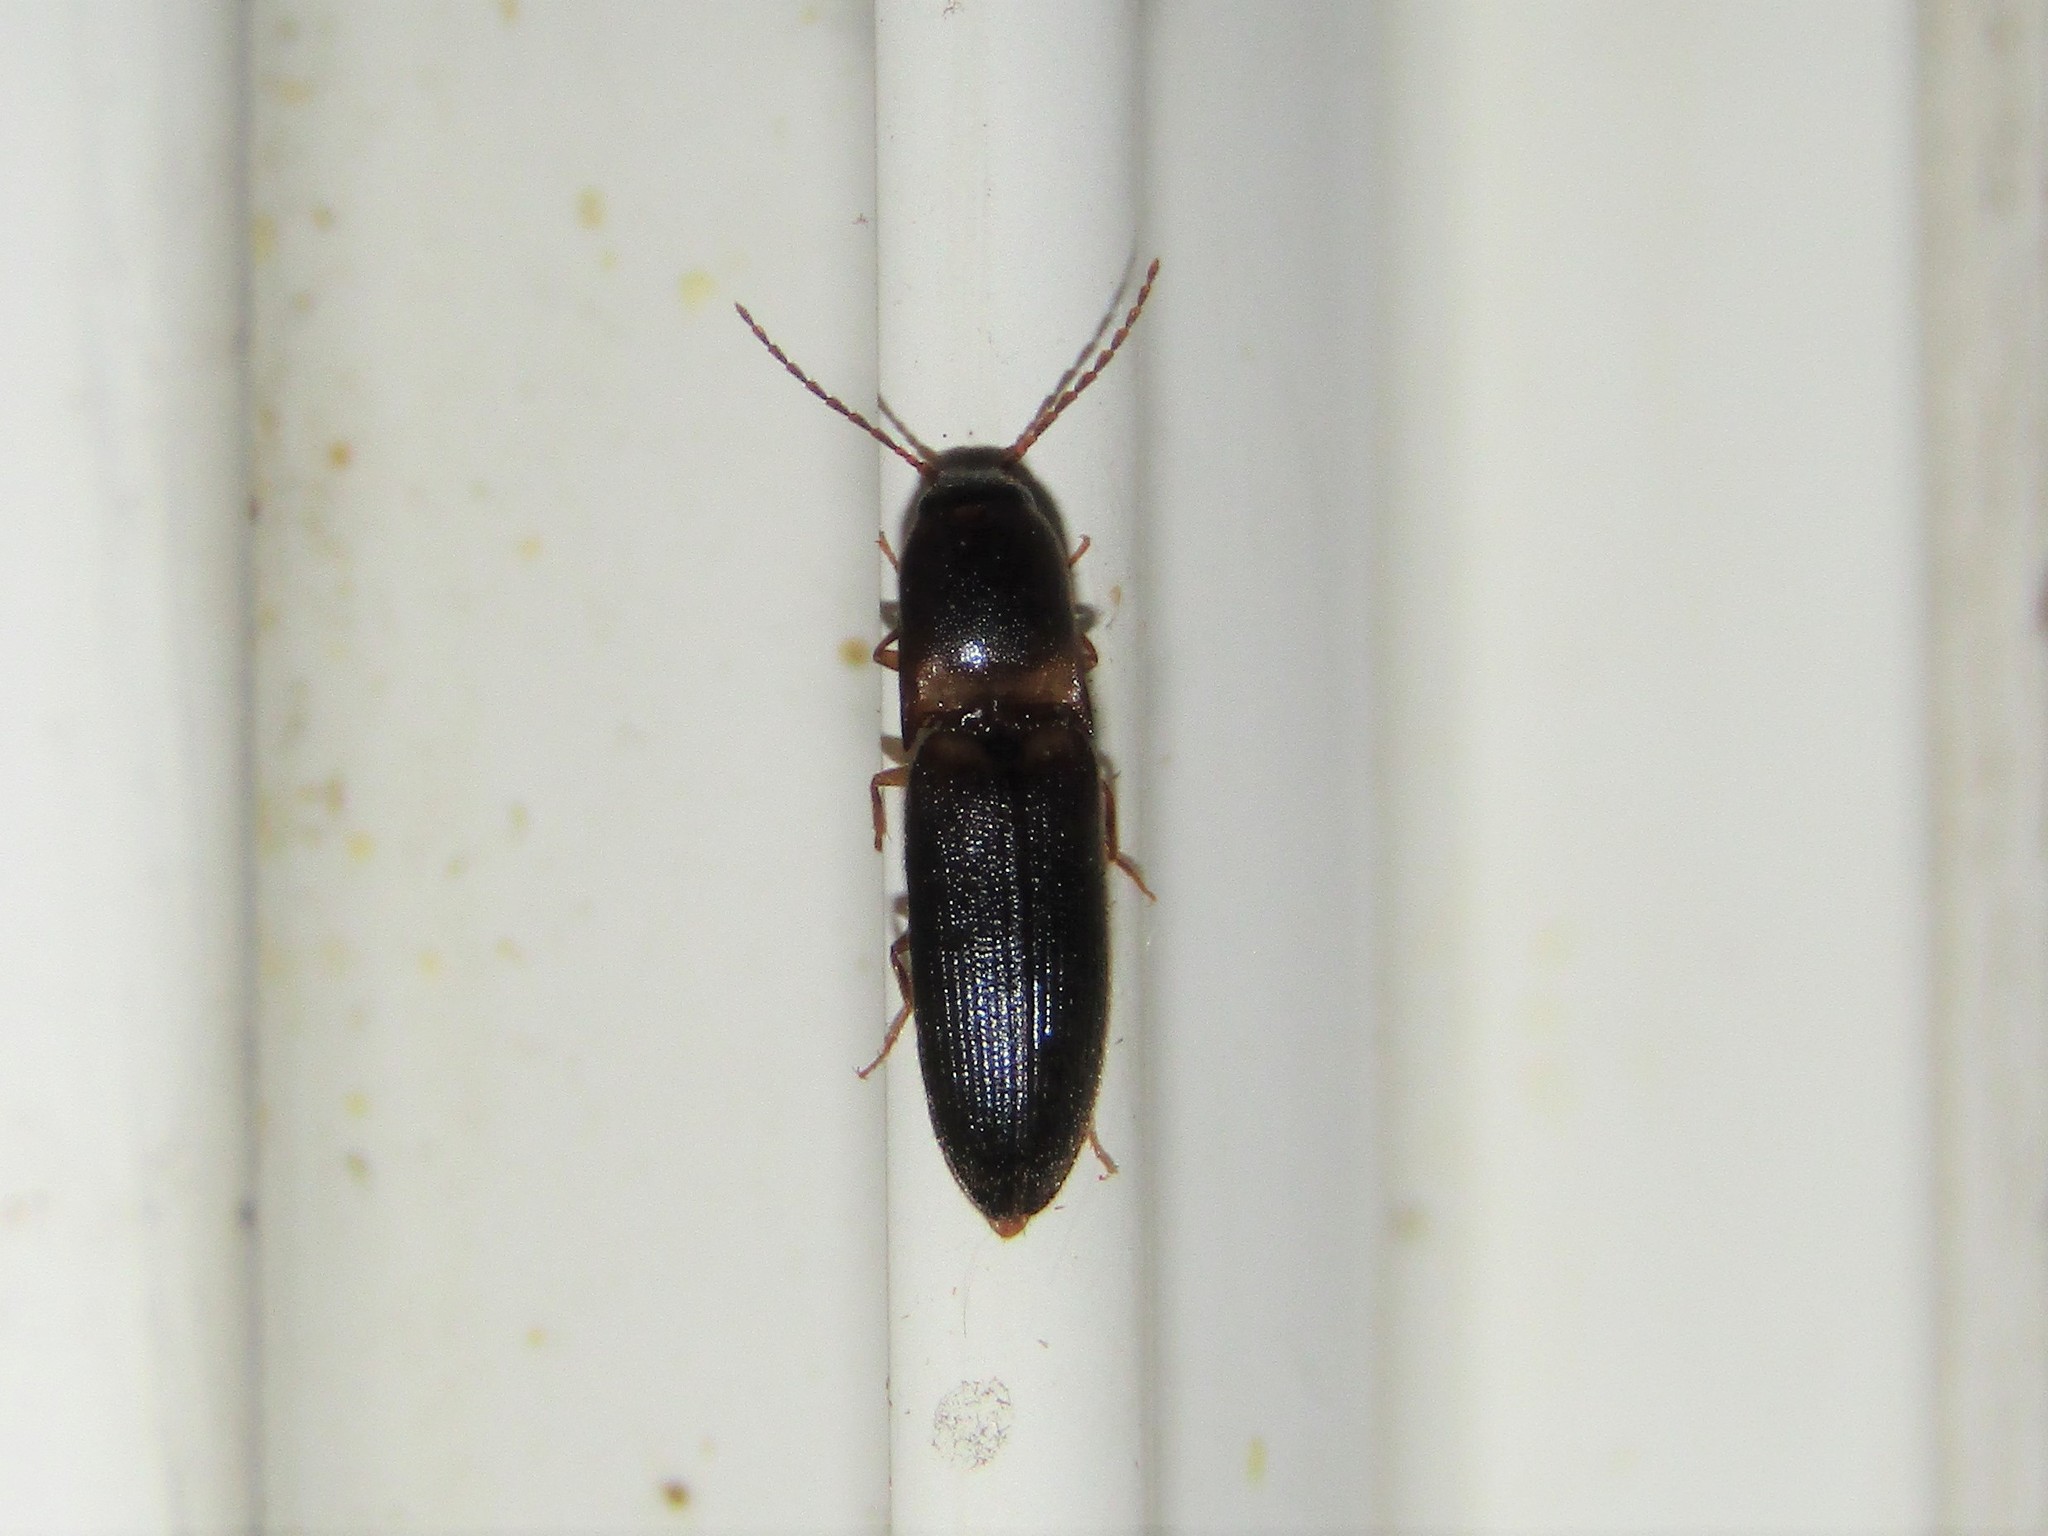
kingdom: Animalia
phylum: Arthropoda
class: Insecta
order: Coleoptera
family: Elateridae
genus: Megapenthes
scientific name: Megapenthes
